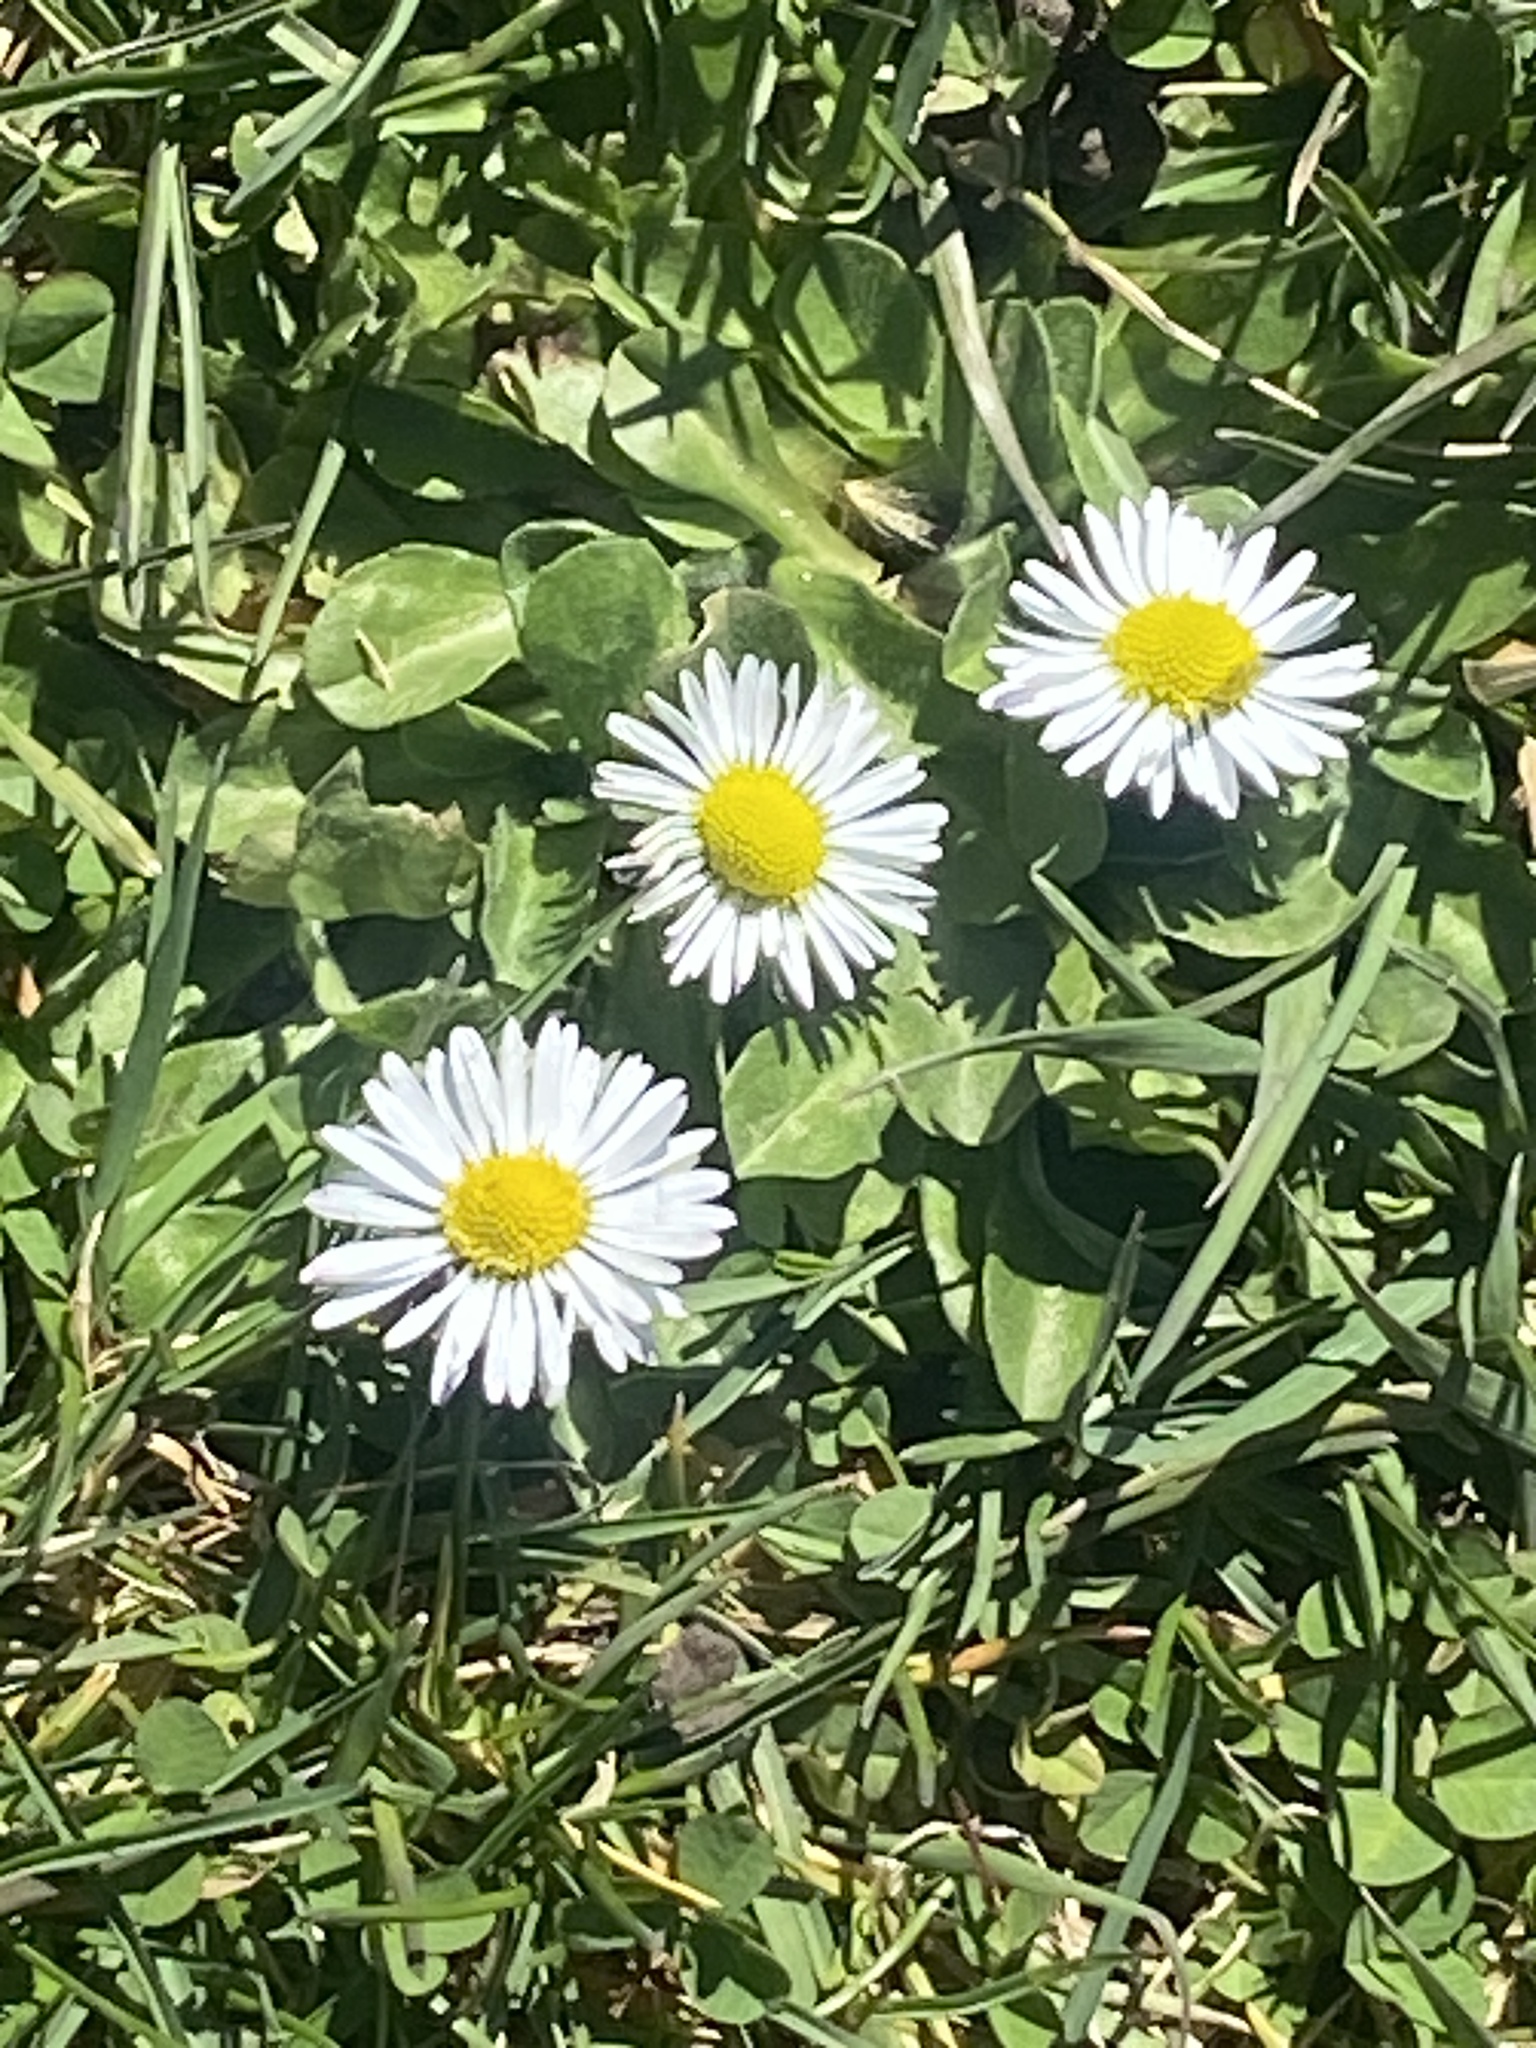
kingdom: Plantae
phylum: Tracheophyta
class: Magnoliopsida
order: Asterales
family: Asteraceae
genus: Bellis
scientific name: Bellis perennis
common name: Lawndaisy
